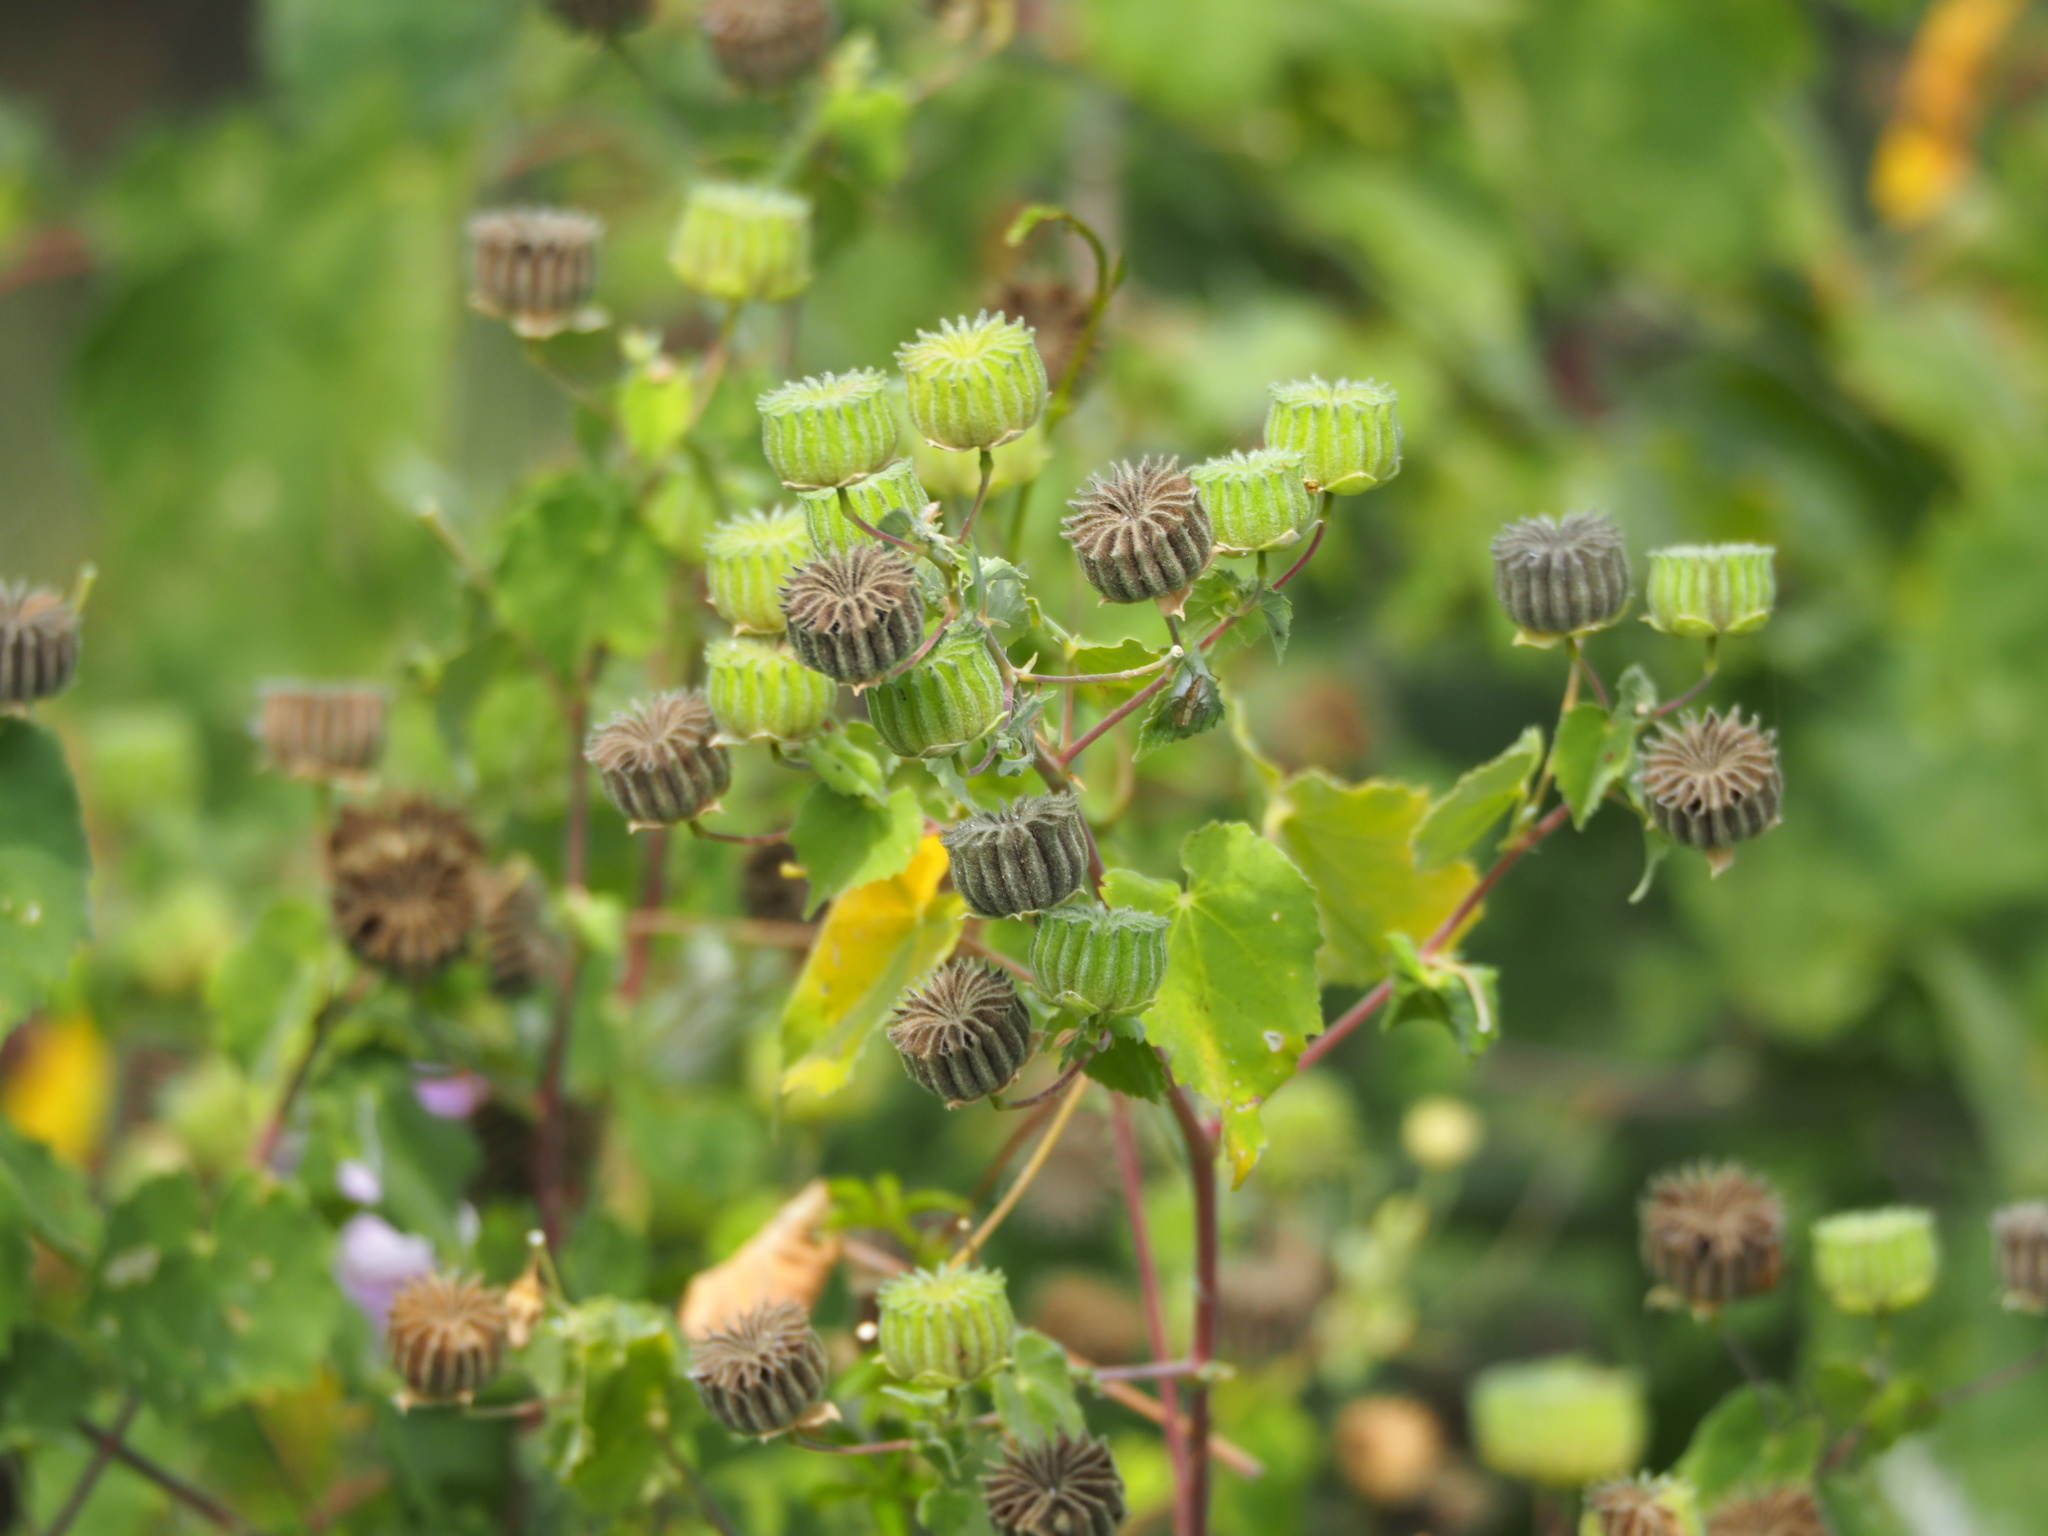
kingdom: Plantae
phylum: Tracheophyta
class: Magnoliopsida
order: Malvales
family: Malvaceae
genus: Abutilon
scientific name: Abutilon indicum
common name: Indian abutilon
